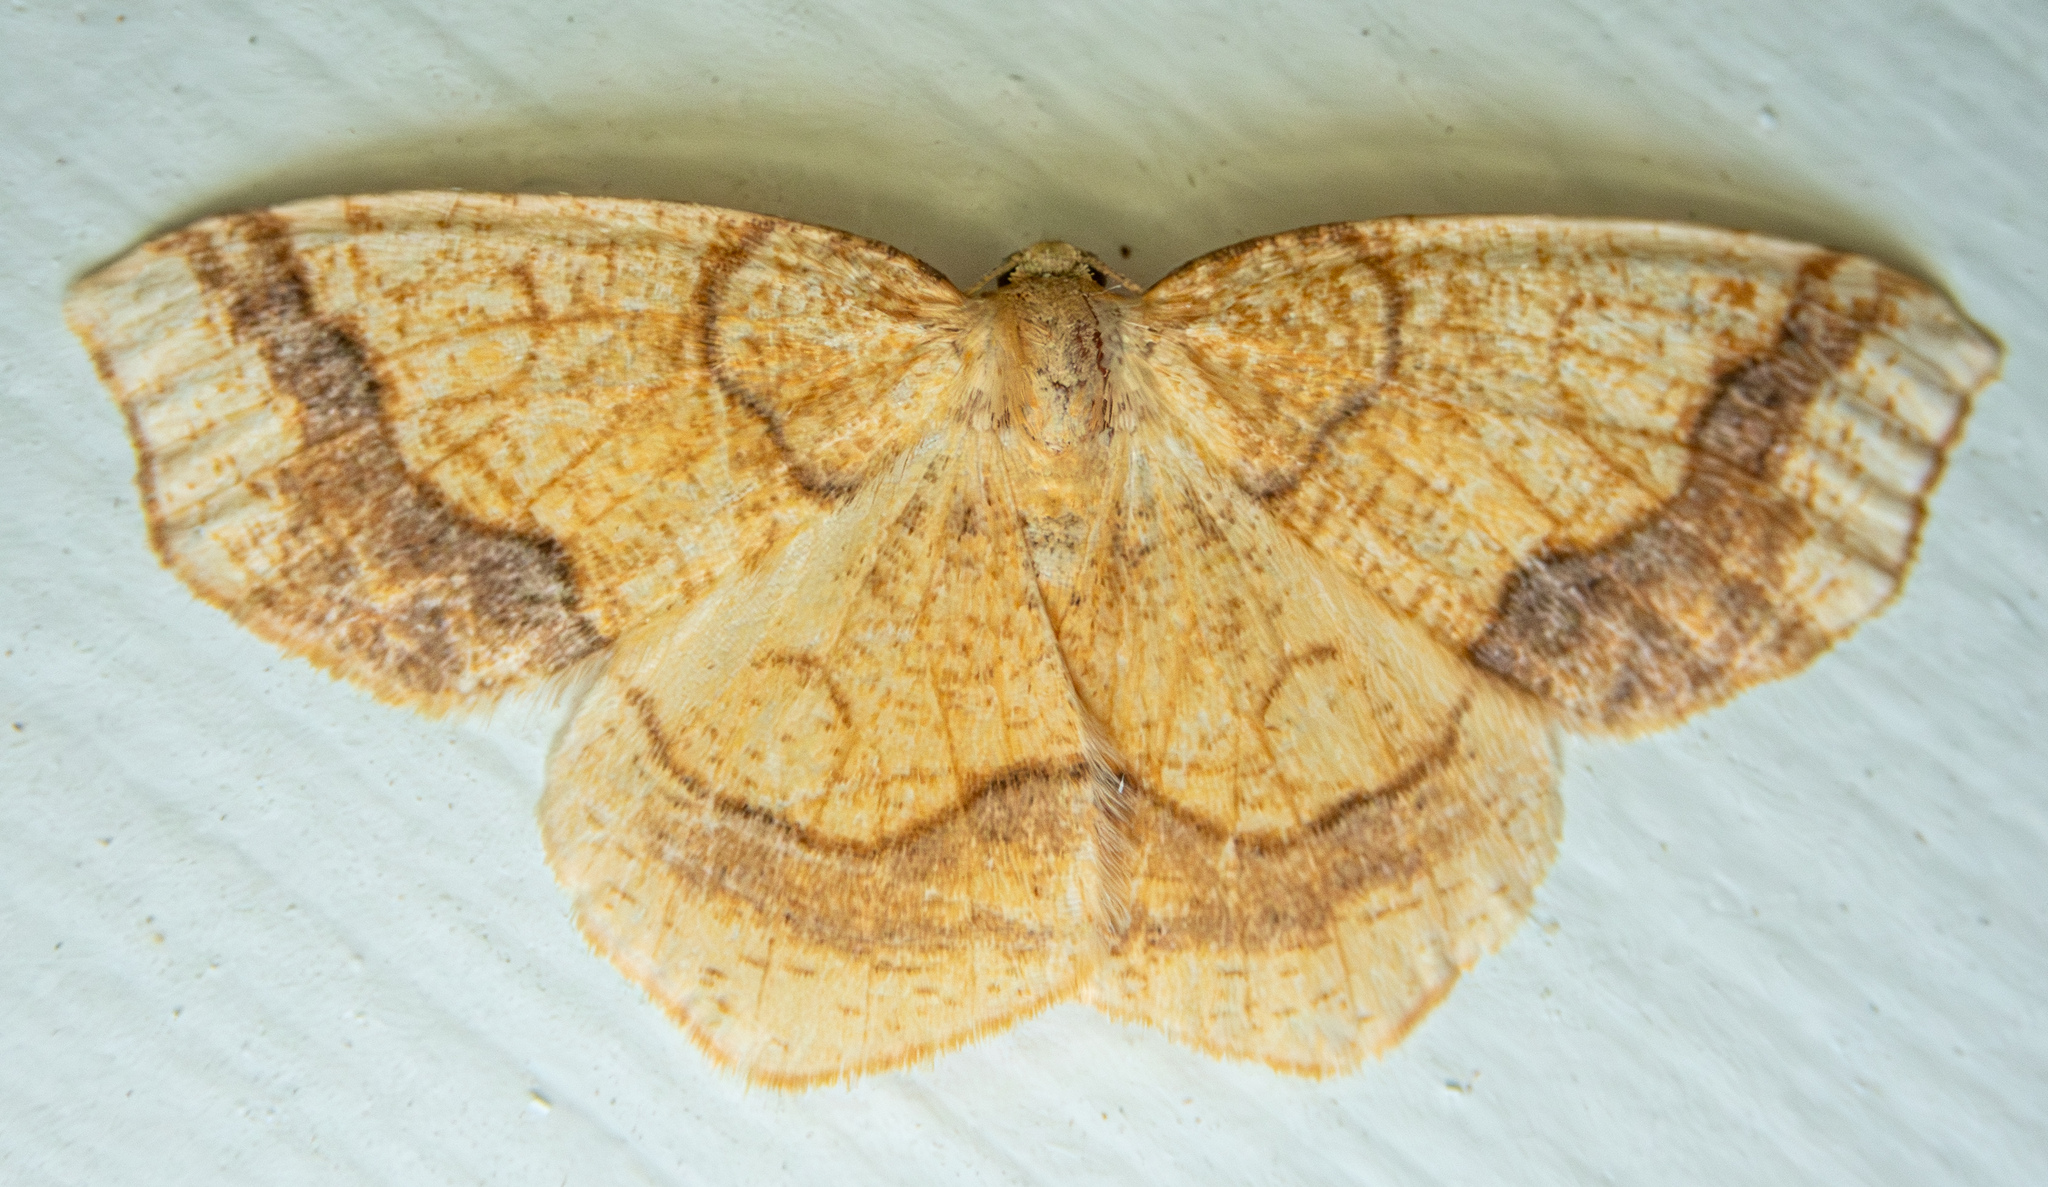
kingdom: Animalia
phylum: Arthropoda
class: Insecta
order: Lepidoptera
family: Geometridae
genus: Nematocampa
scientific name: Nematocampa brehmeata
